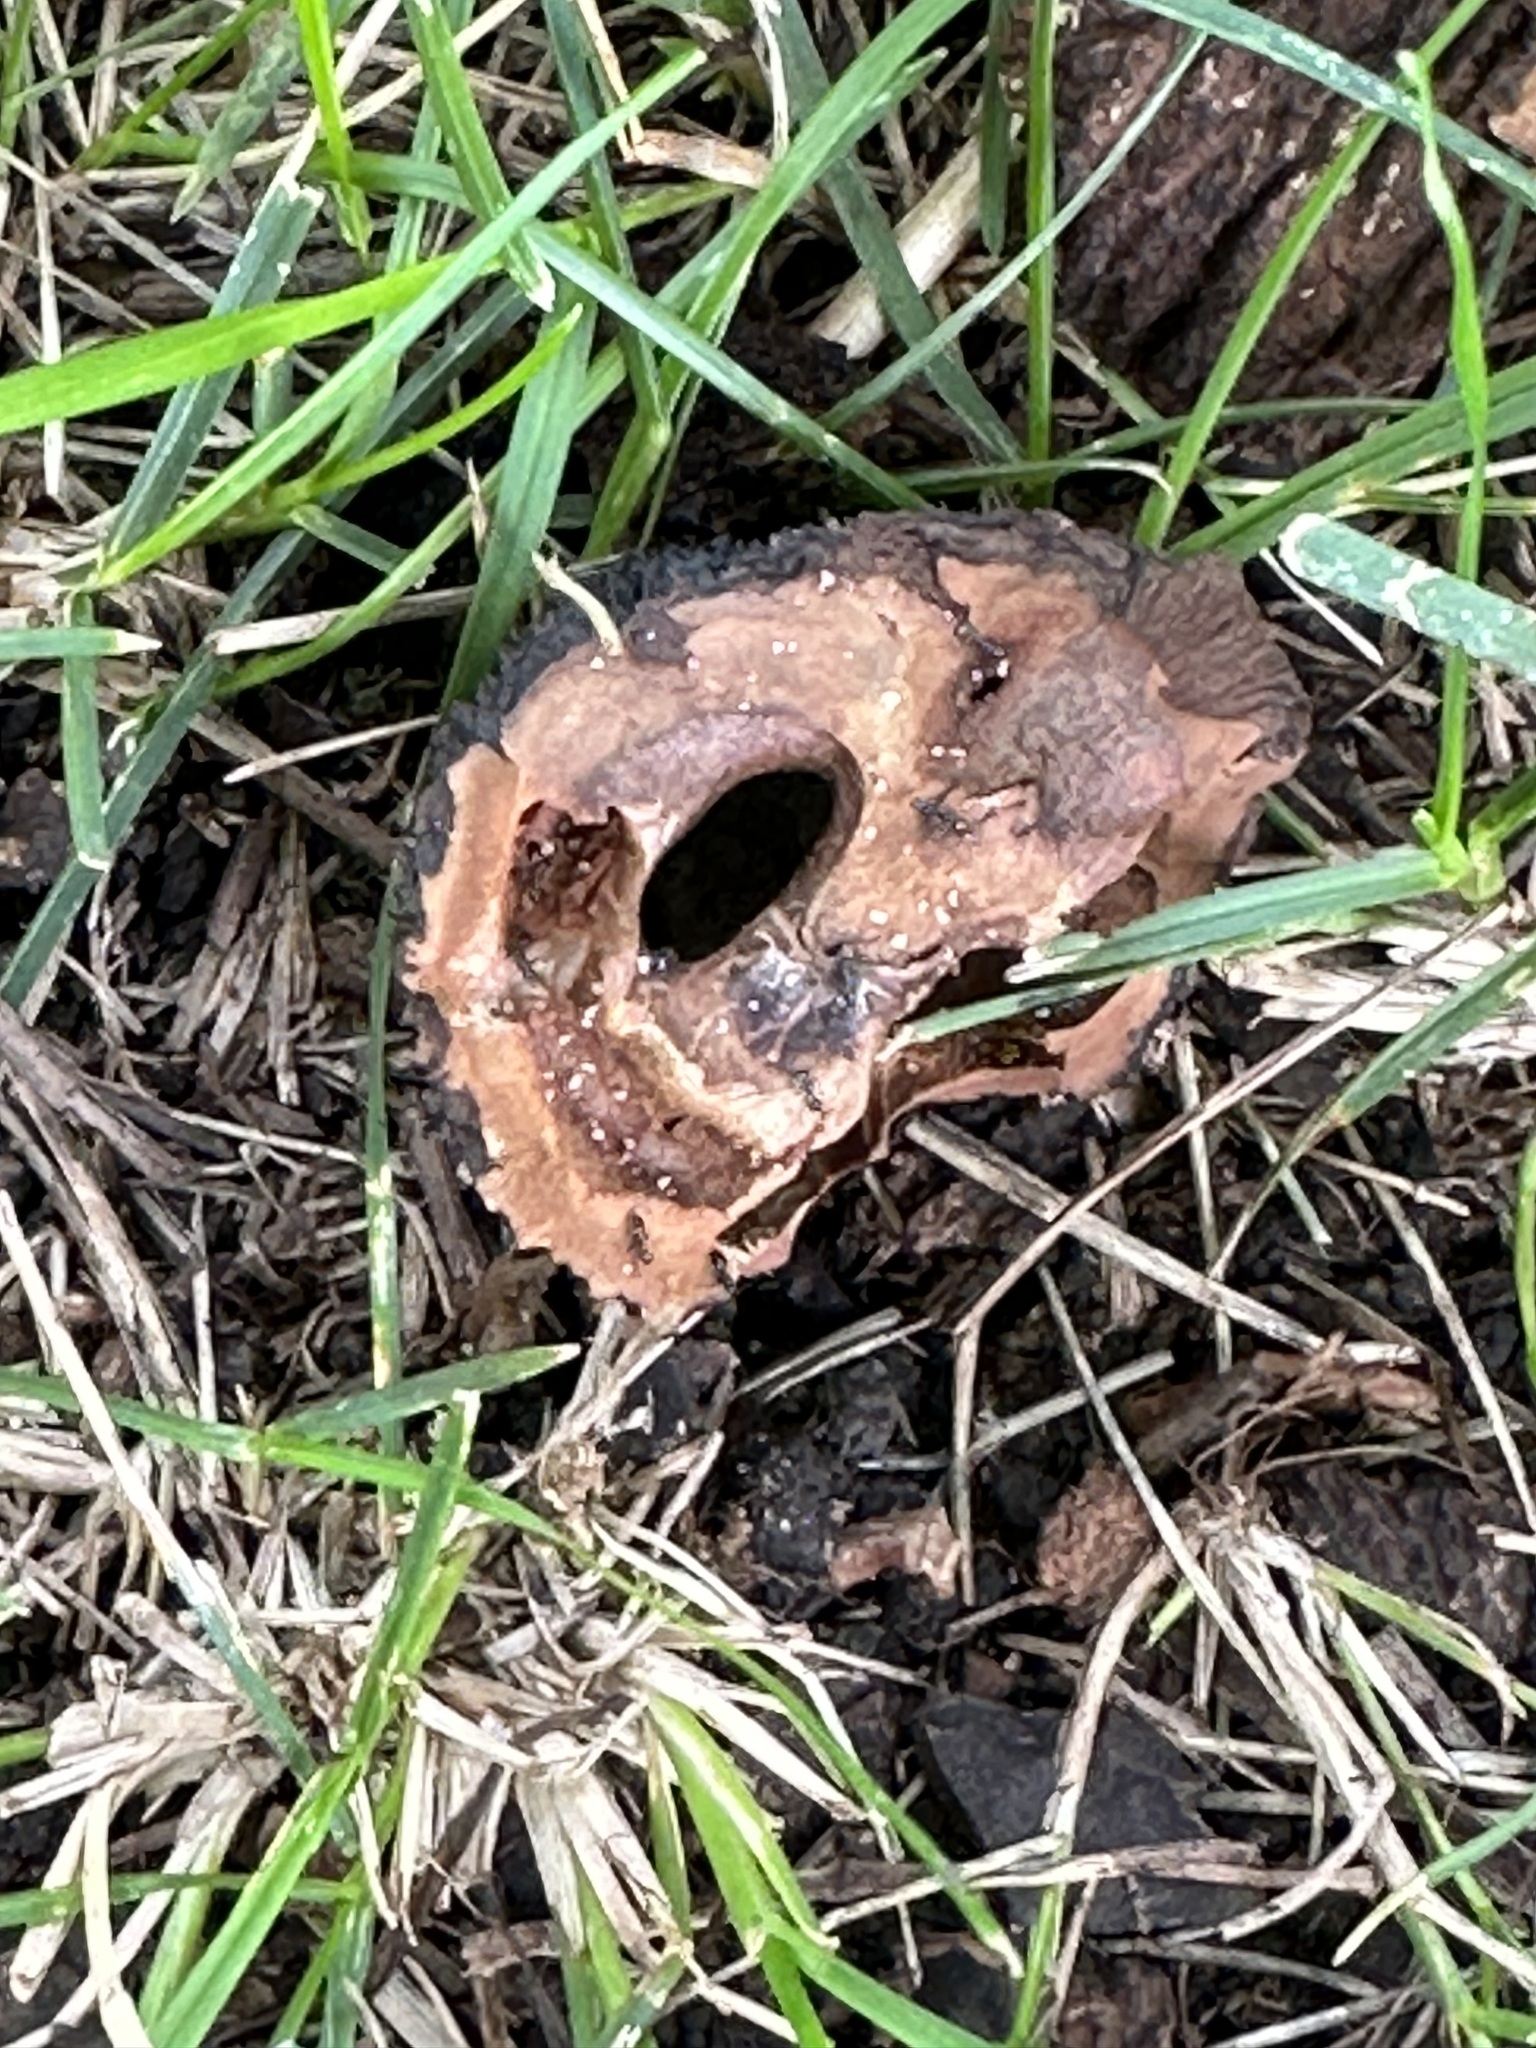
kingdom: Plantae
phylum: Tracheophyta
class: Magnoliopsida
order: Fagales
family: Juglandaceae
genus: Juglans
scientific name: Juglans nigra
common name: Black walnut
